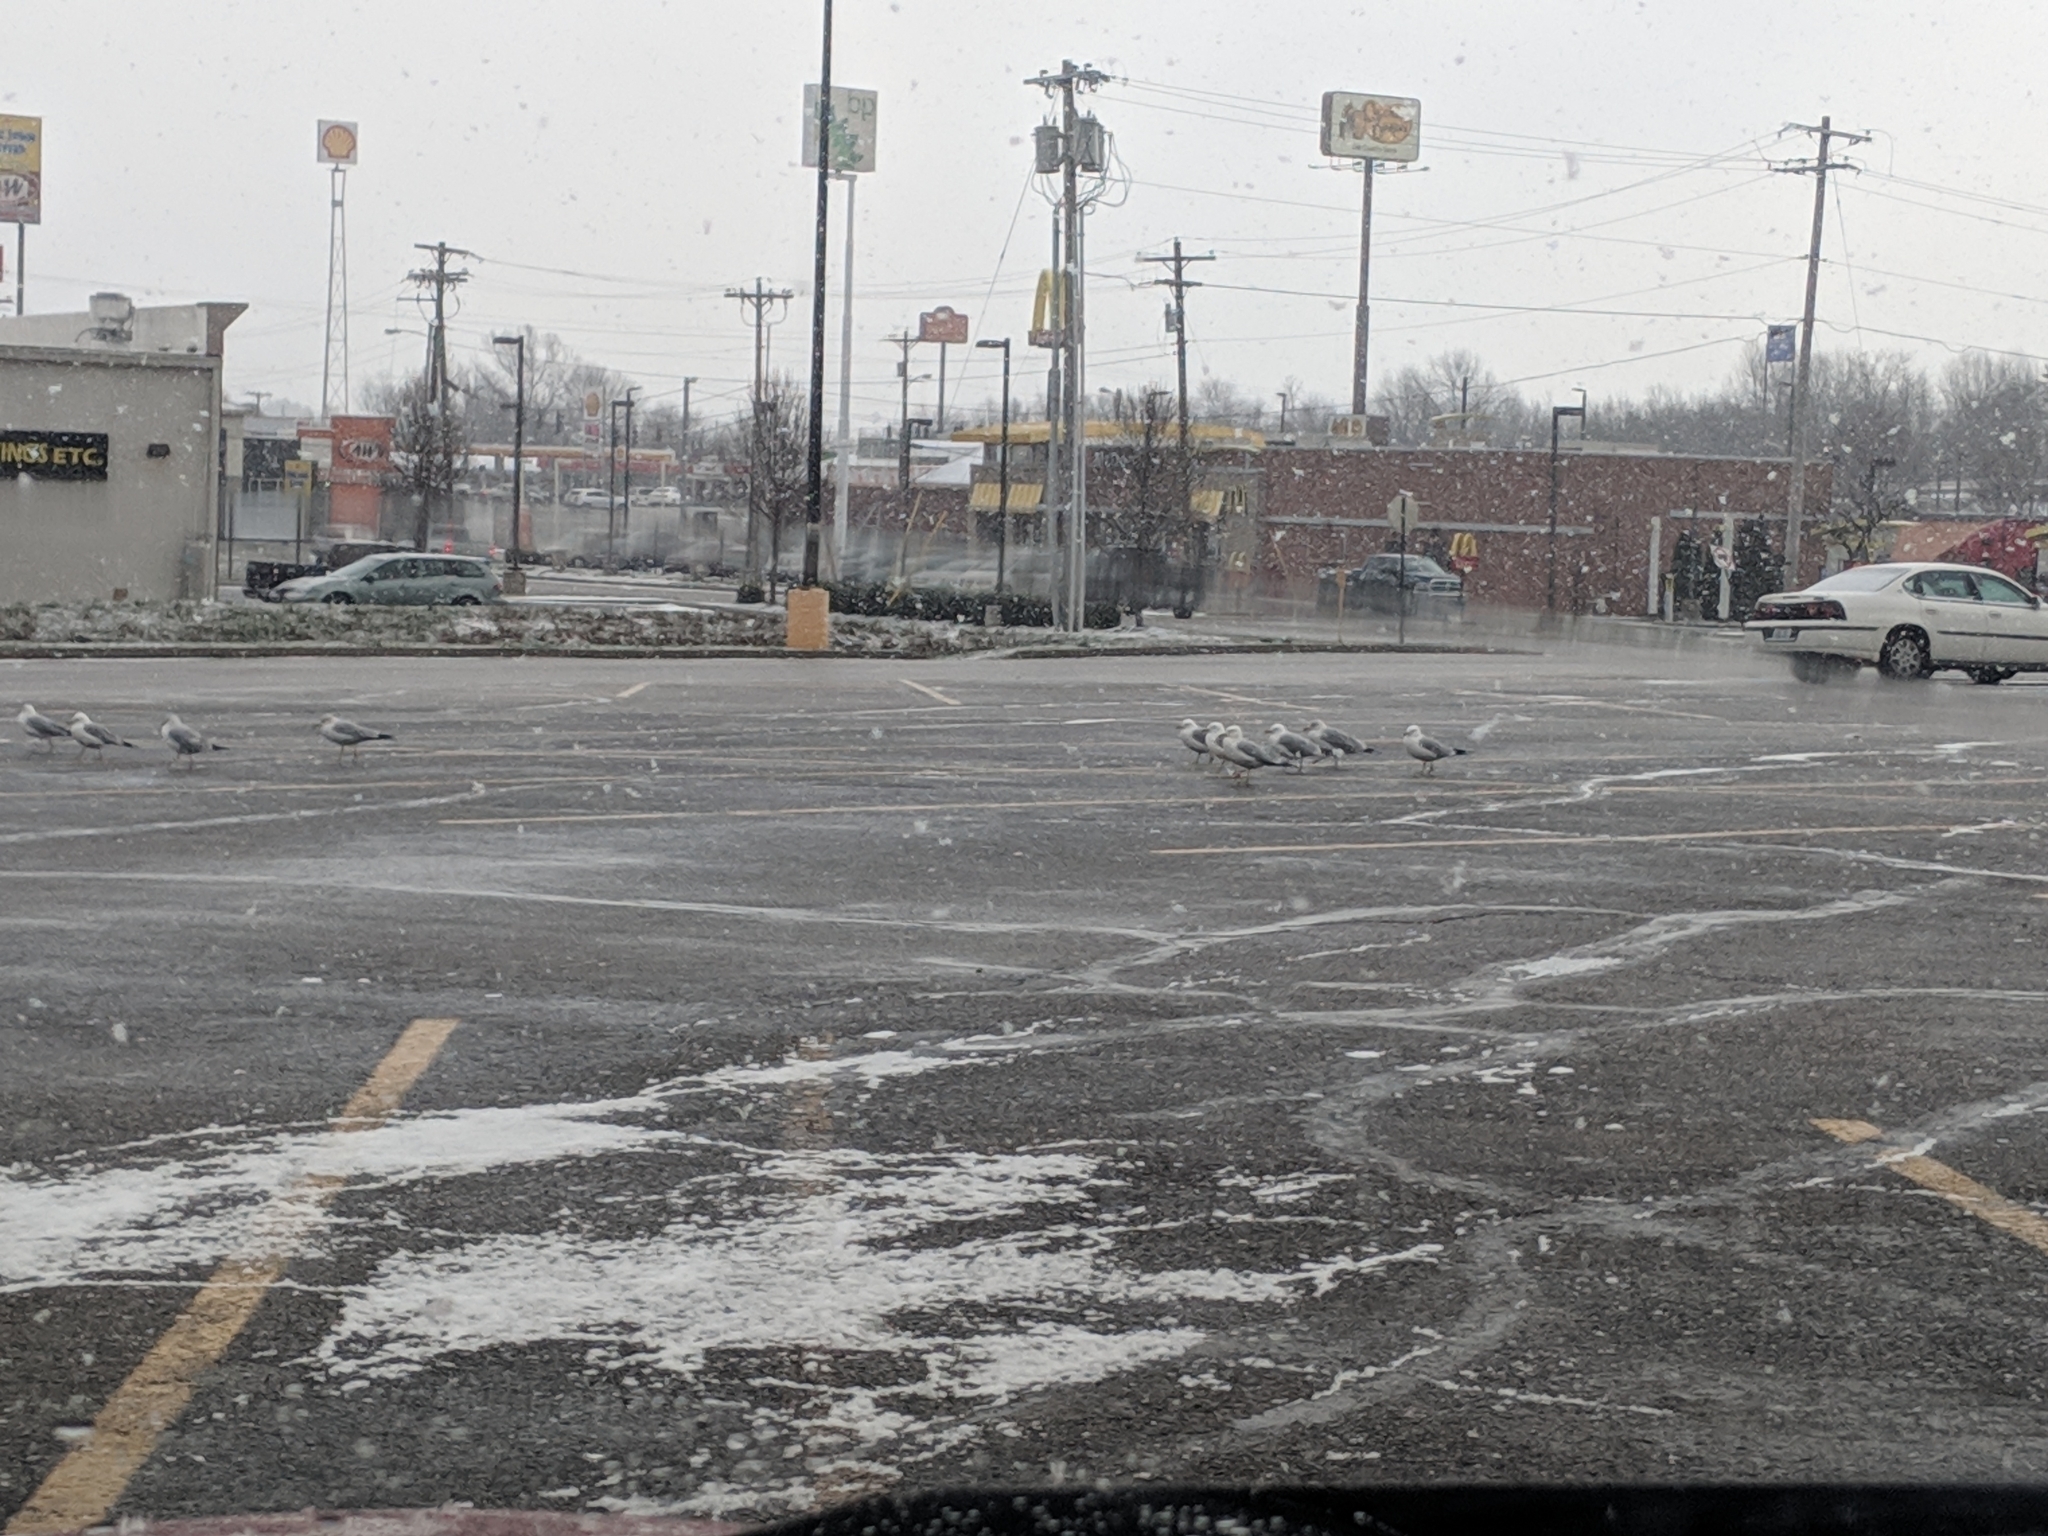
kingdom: Animalia
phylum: Chordata
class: Aves
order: Charadriiformes
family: Laridae
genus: Larus
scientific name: Larus delawarensis
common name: Ring-billed gull
